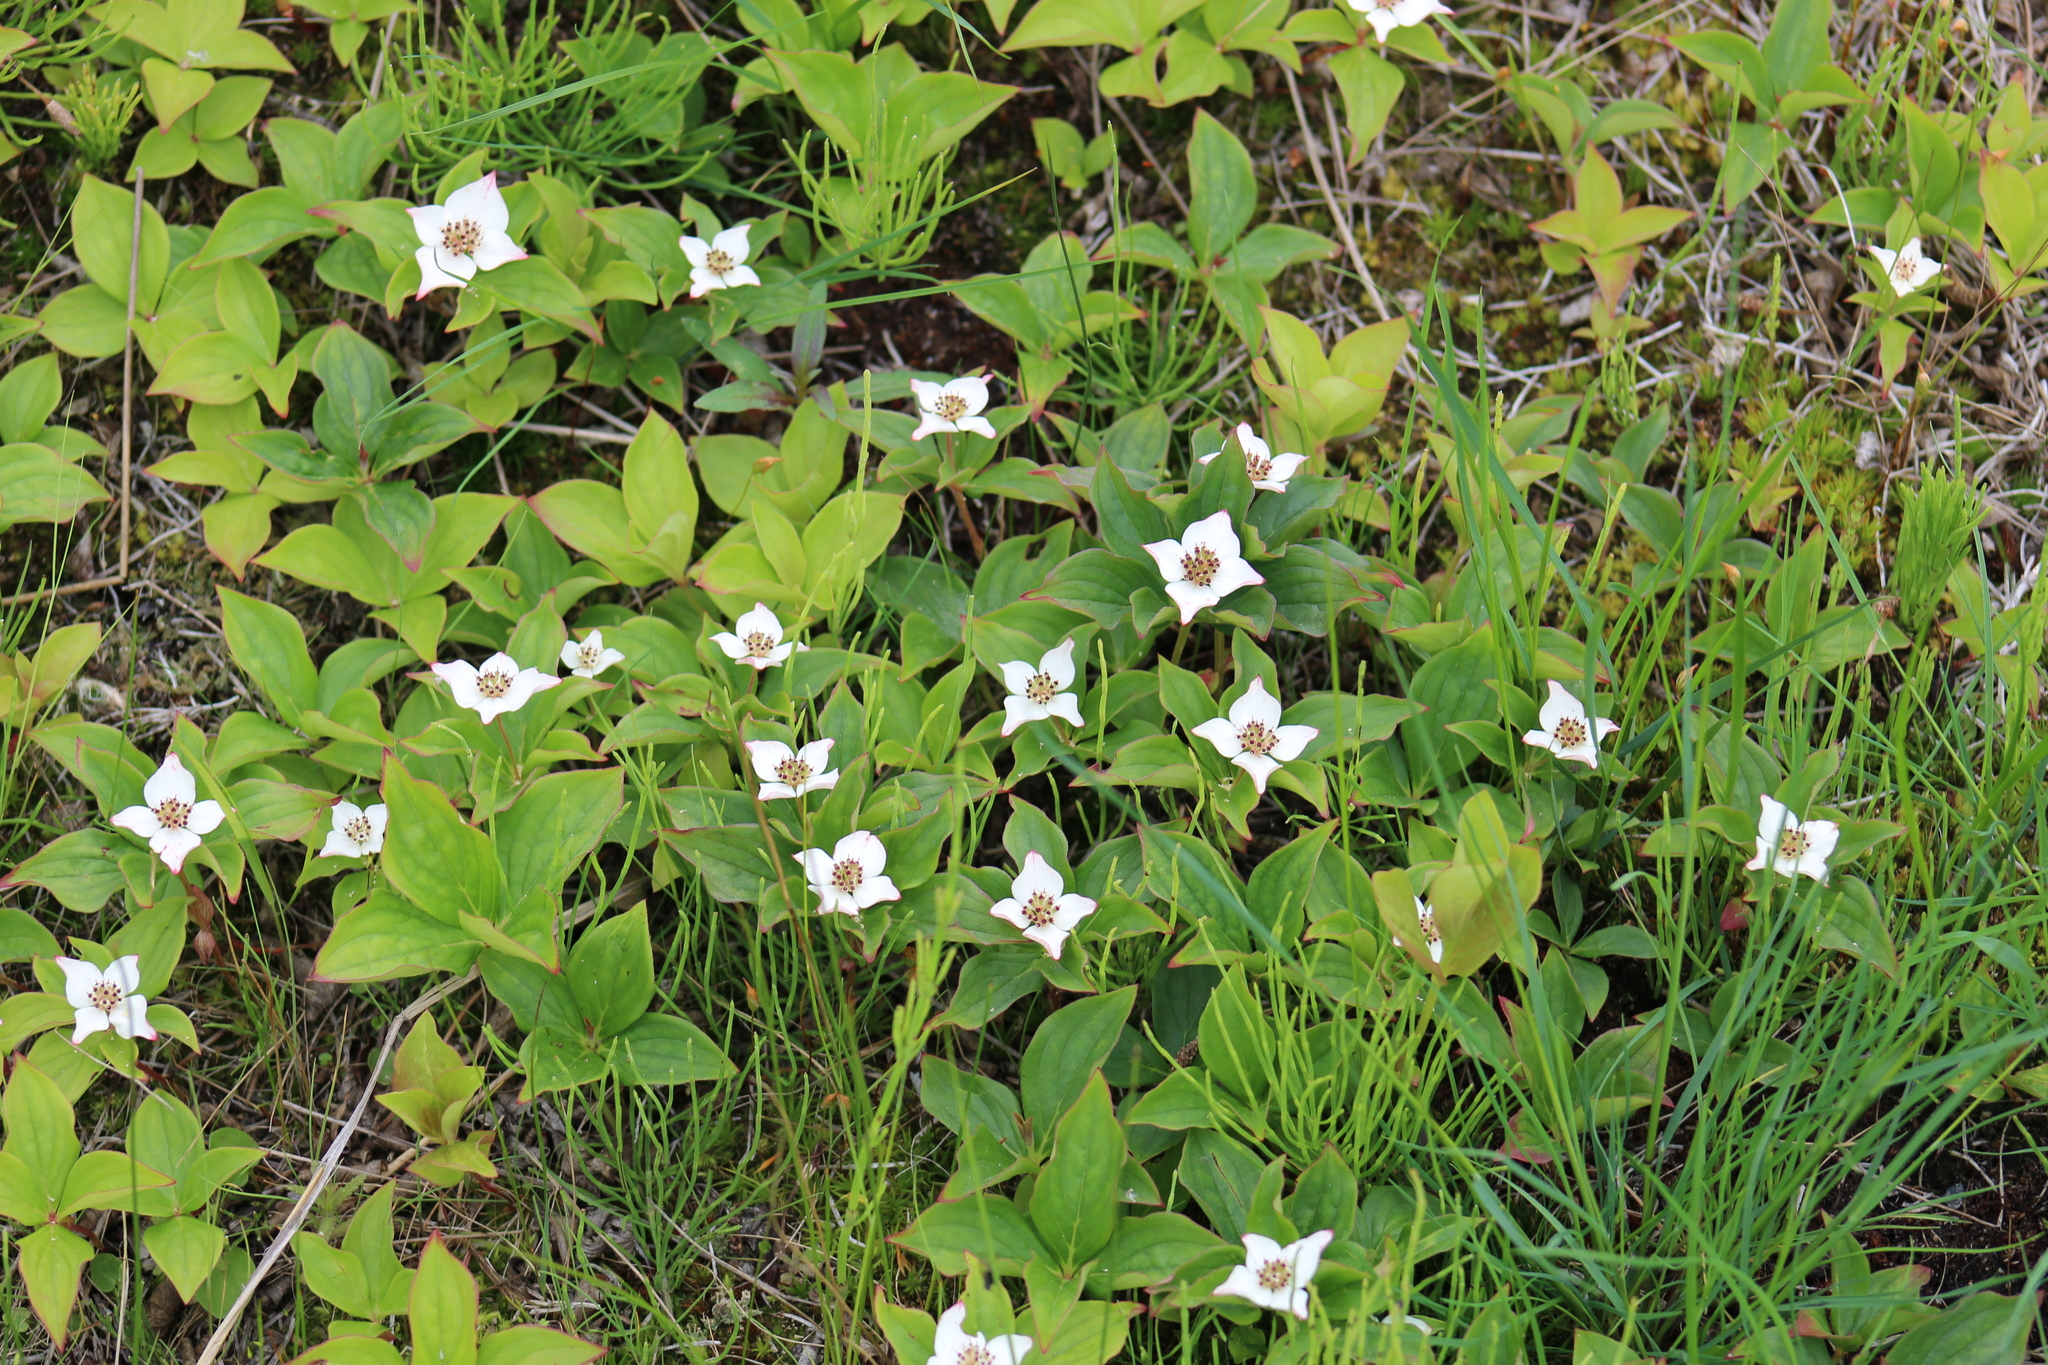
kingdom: Plantae
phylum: Tracheophyta
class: Magnoliopsida
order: Cornales
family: Cornaceae
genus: Cornus
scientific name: Cornus canadensis
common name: Creeping dogwood
